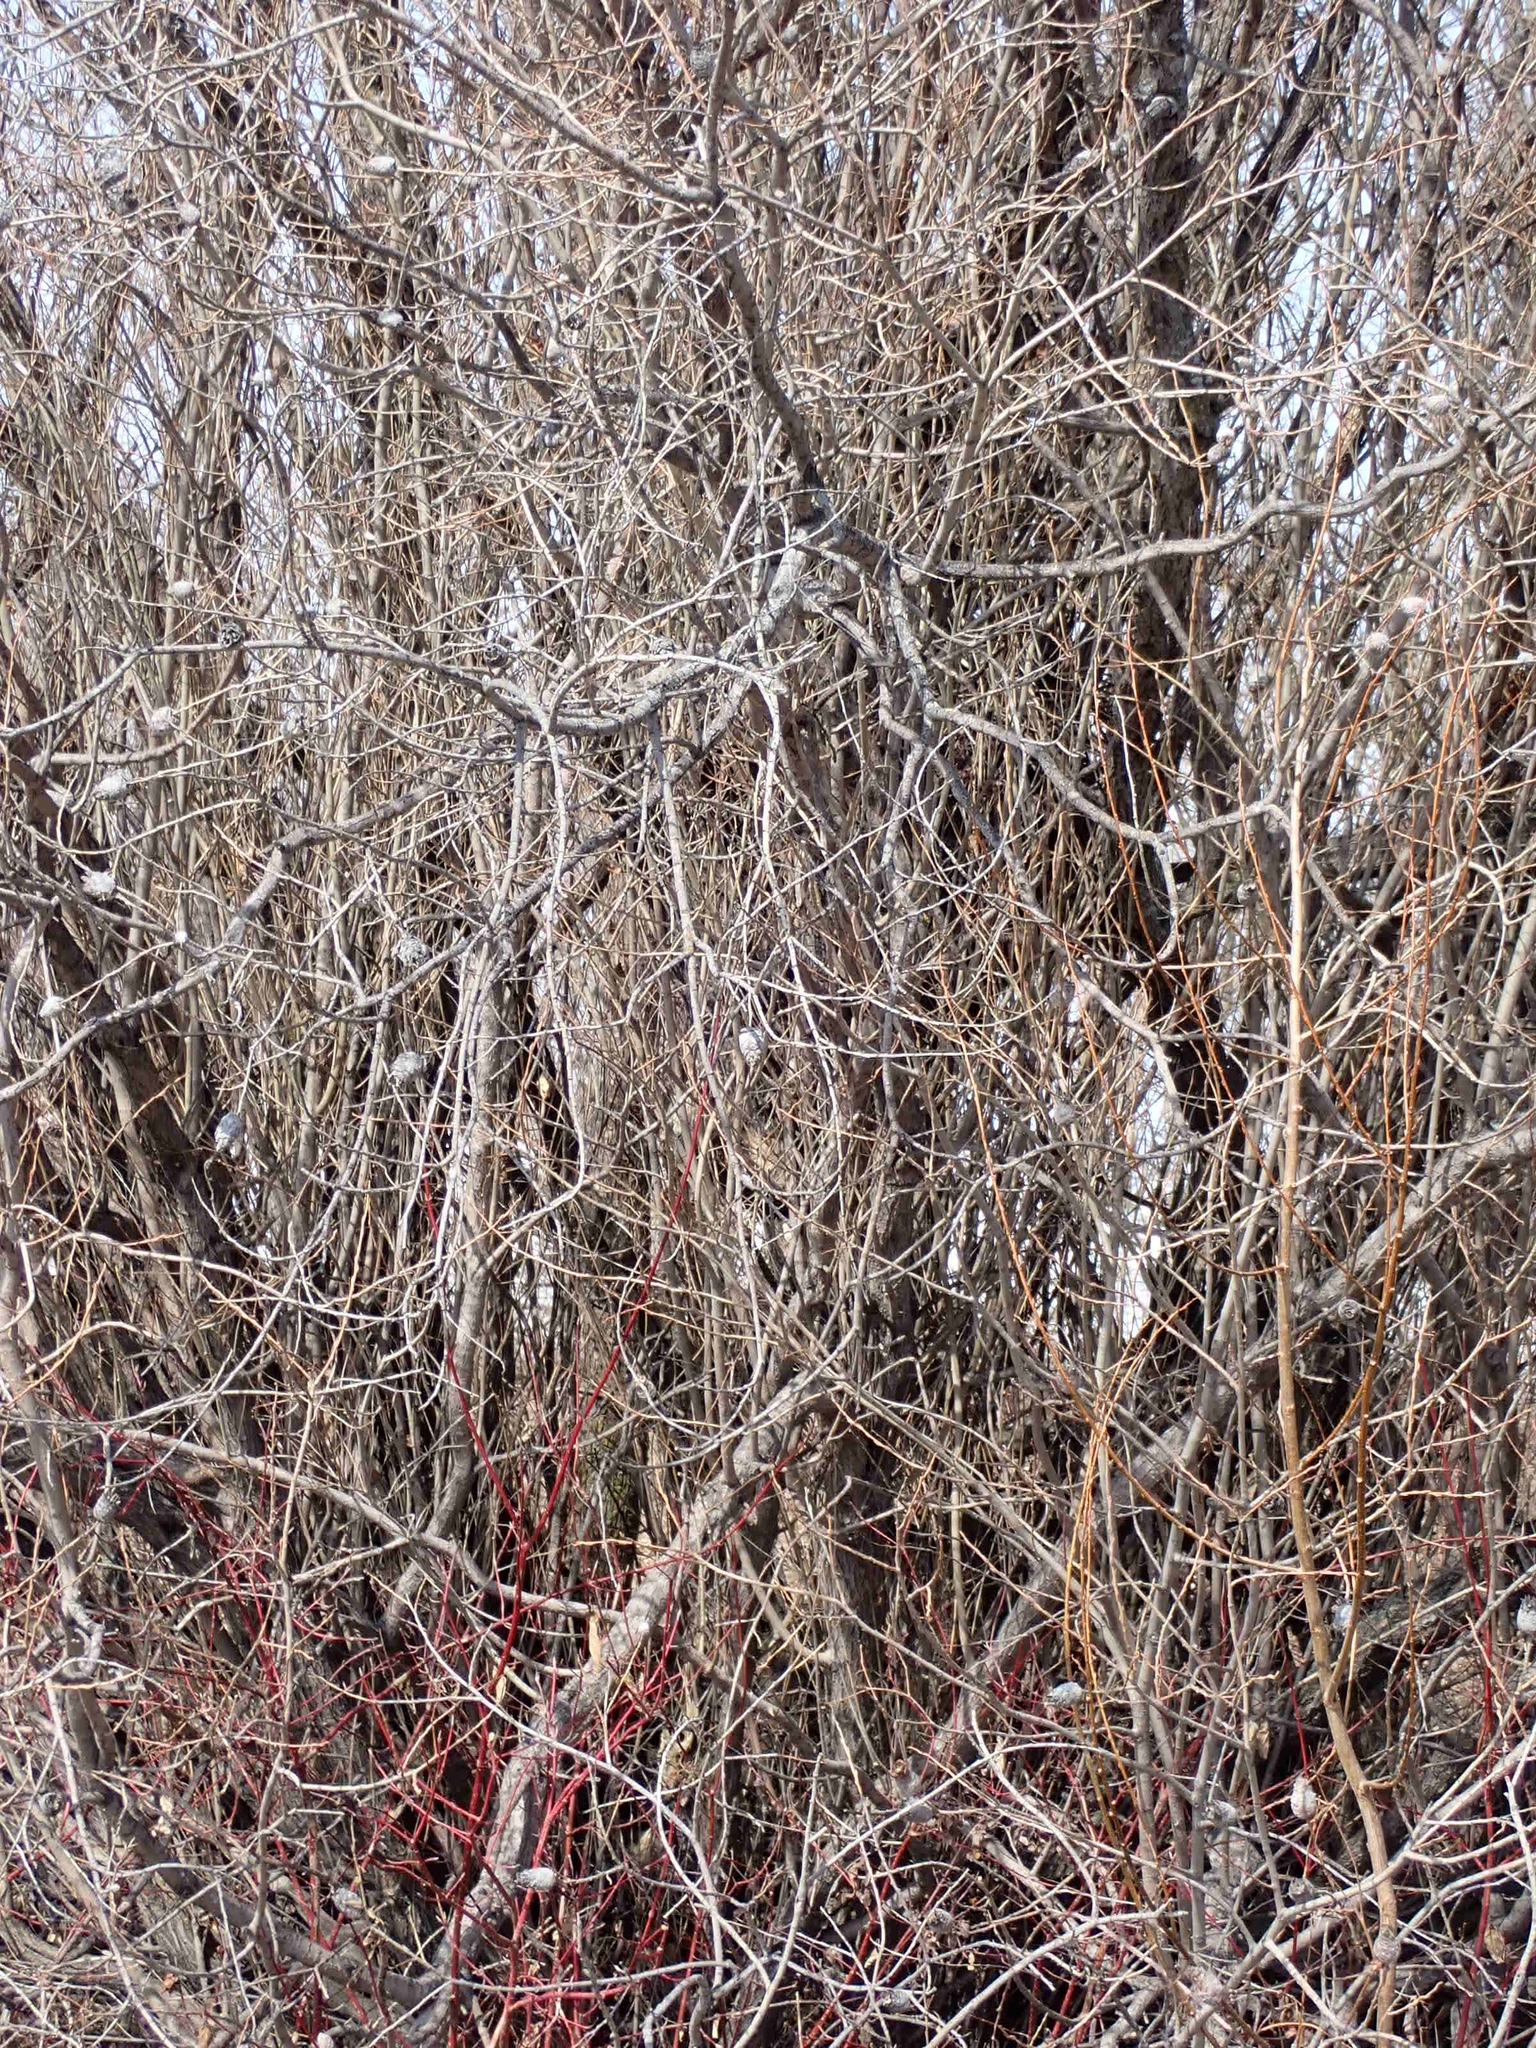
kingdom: Animalia
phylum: Arthropoda
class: Insecta
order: Diptera
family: Cecidomyiidae
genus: Rabdophaga
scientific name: Rabdophaga strobiloides
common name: Willow pinecone gall midge
